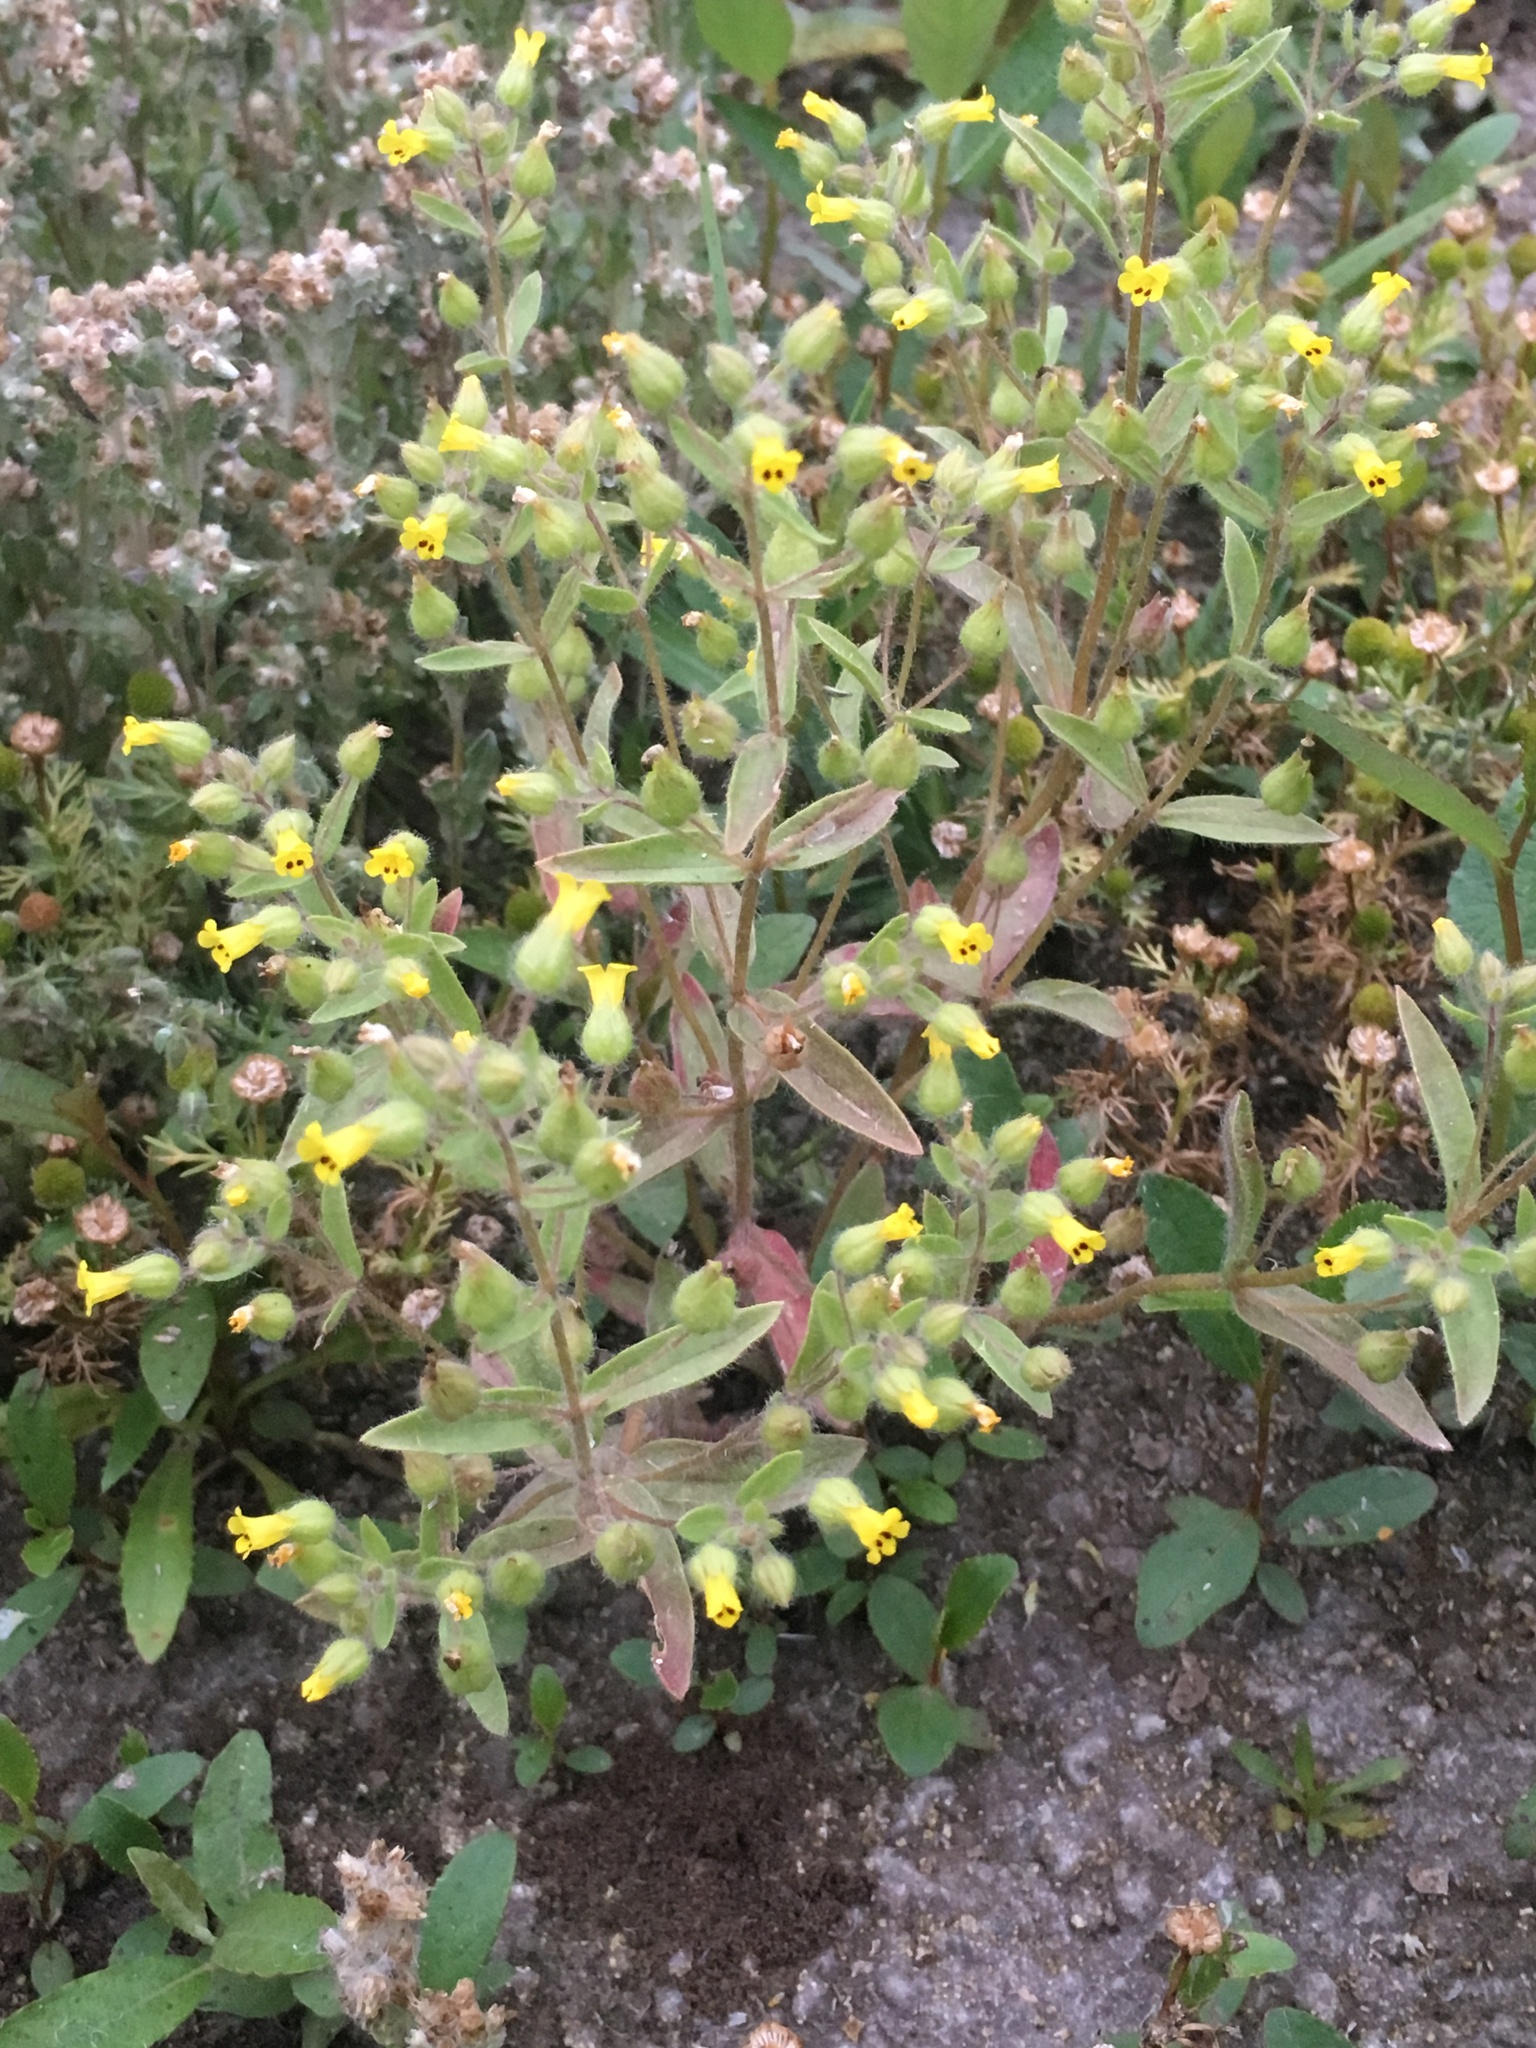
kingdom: Plantae
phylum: Tracheophyta
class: Magnoliopsida
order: Lamiales
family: Phrymaceae
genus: Mimetanthe
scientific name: Mimetanthe pilosa
